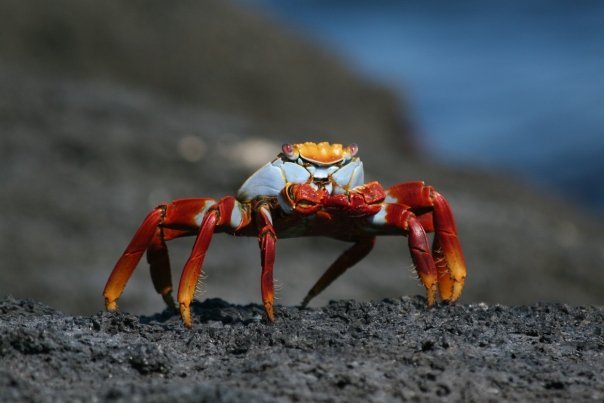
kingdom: Animalia
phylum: Arthropoda
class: Malacostraca
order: Decapoda
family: Grapsidae
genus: Grapsus
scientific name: Grapsus grapsus
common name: Sally lightfoot
